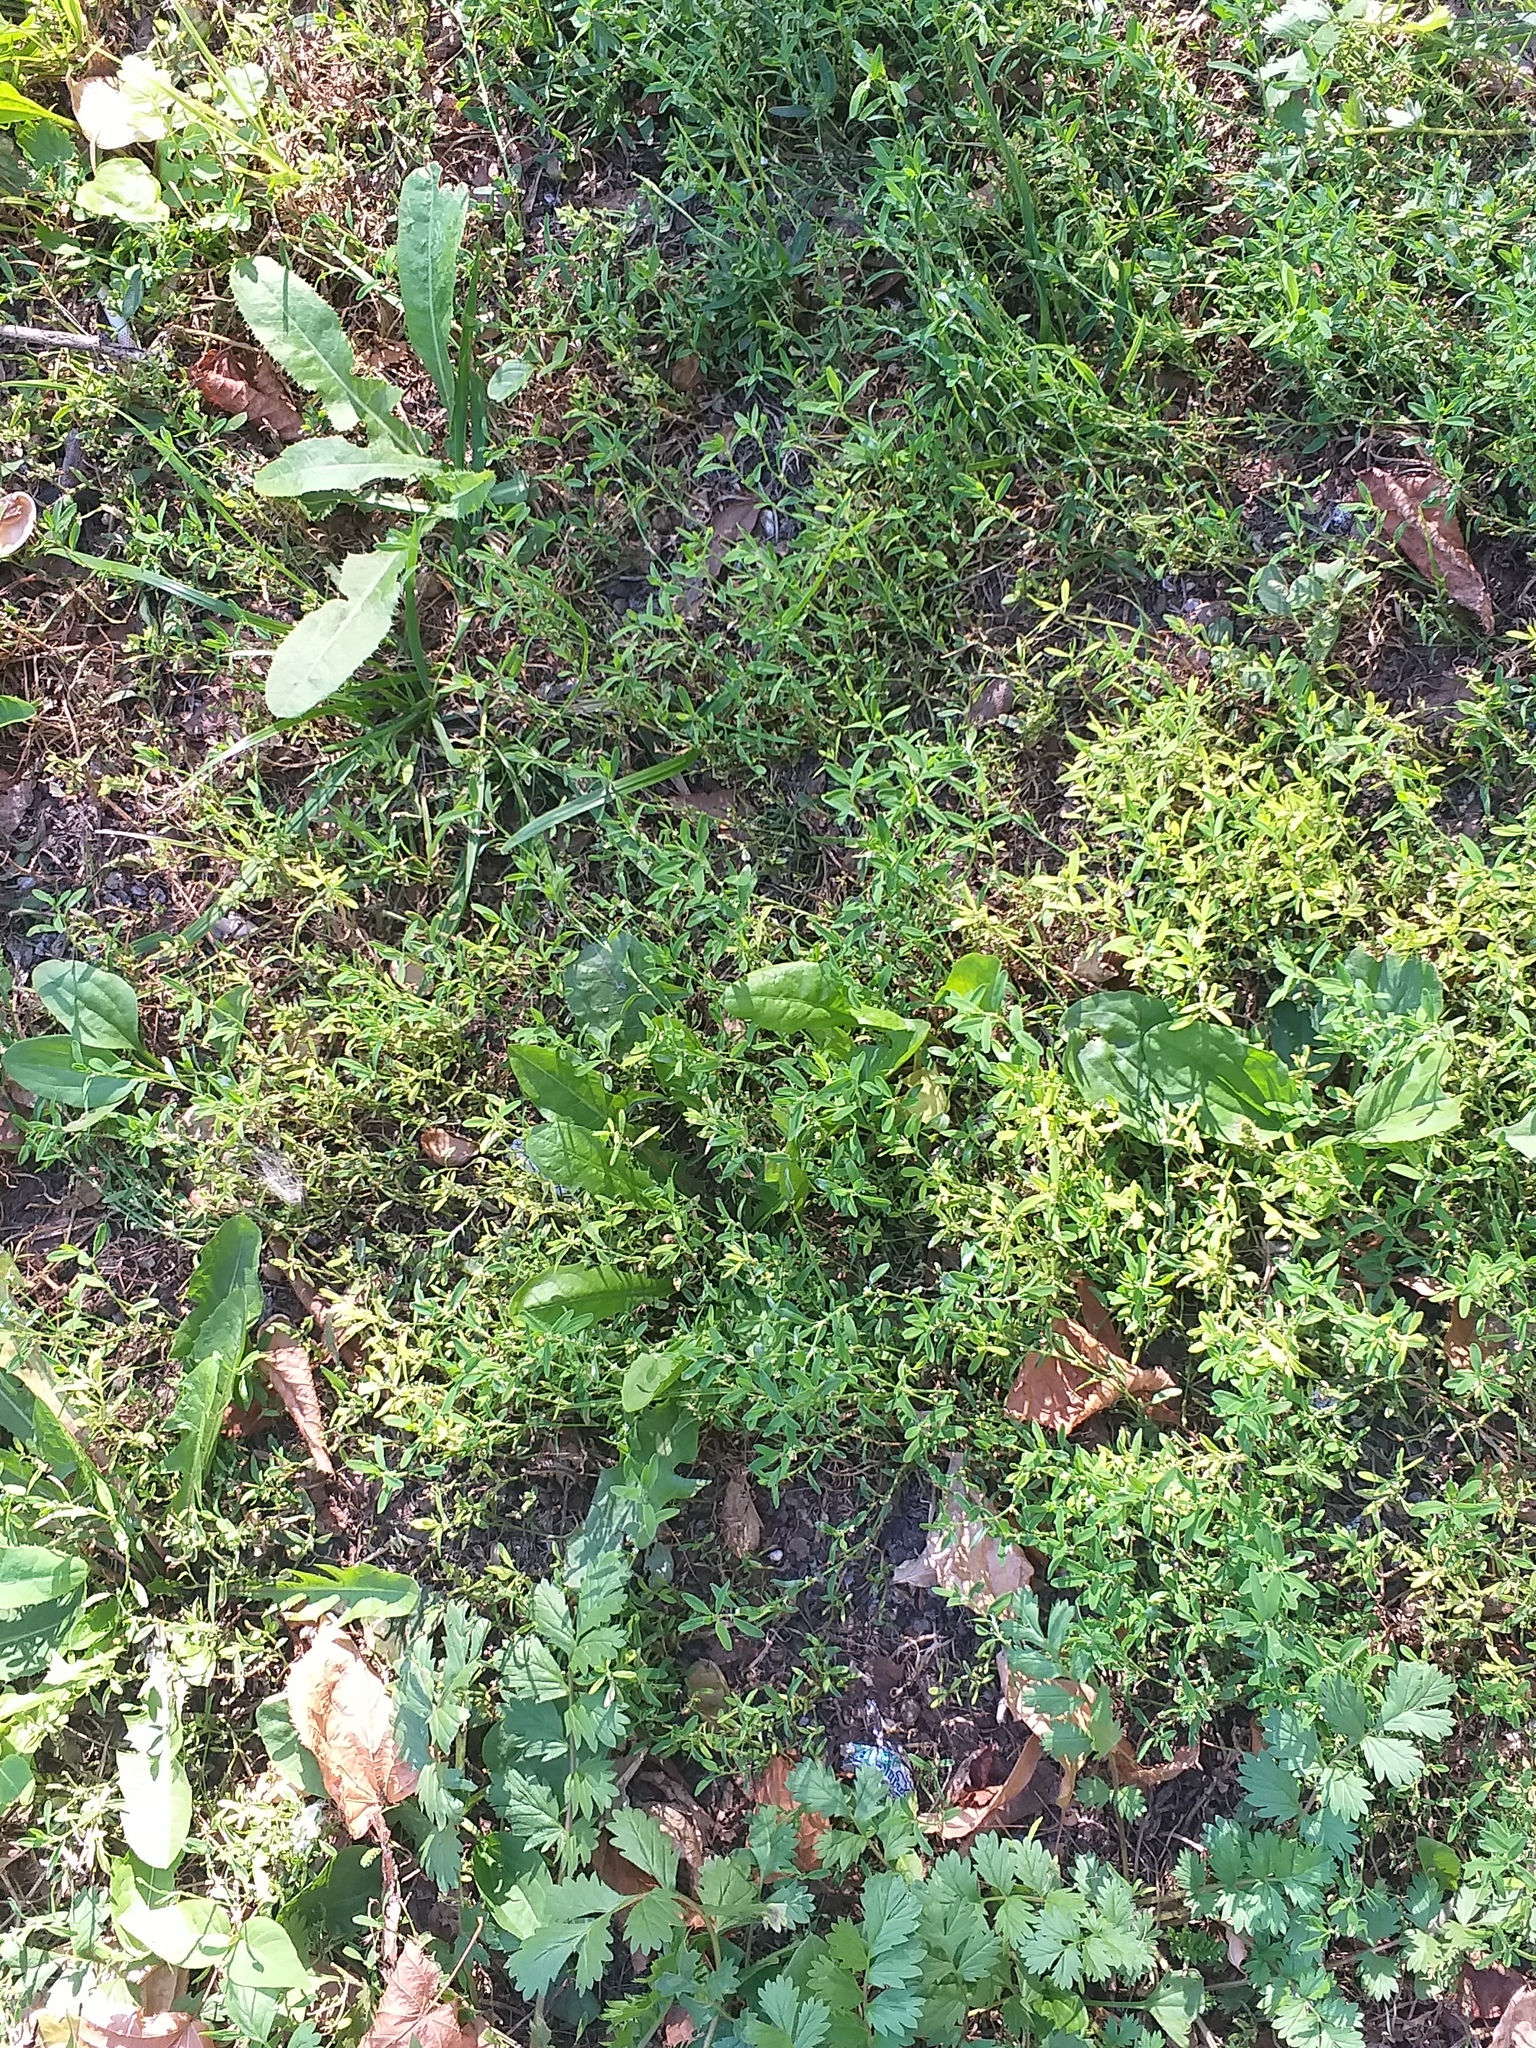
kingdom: Plantae
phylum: Tracheophyta
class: Magnoliopsida
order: Caryophyllales
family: Polygonaceae
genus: Polygonum
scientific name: Polygonum
